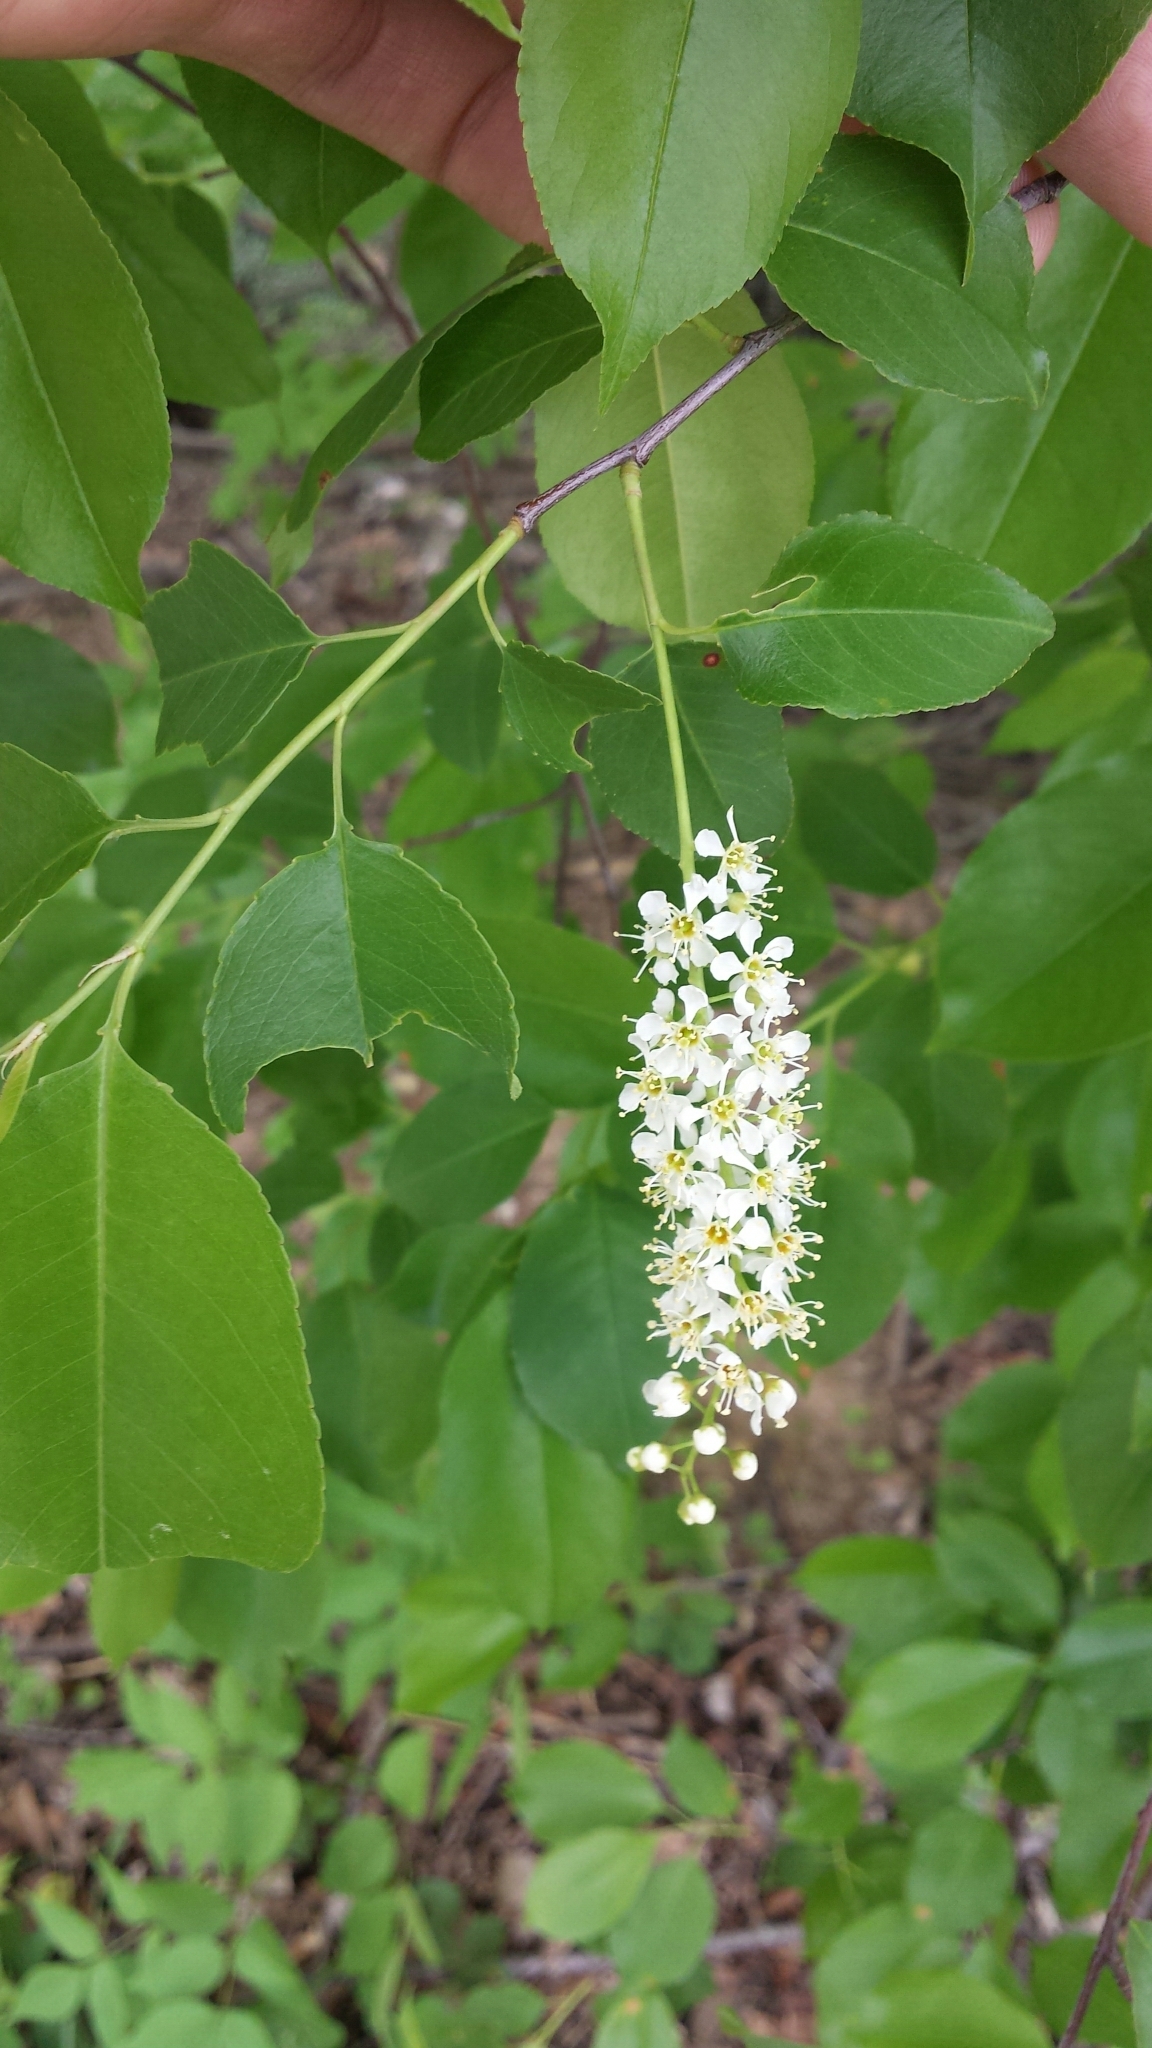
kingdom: Plantae
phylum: Tracheophyta
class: Magnoliopsida
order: Rosales
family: Rosaceae
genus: Prunus
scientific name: Prunus serotina
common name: Black cherry
